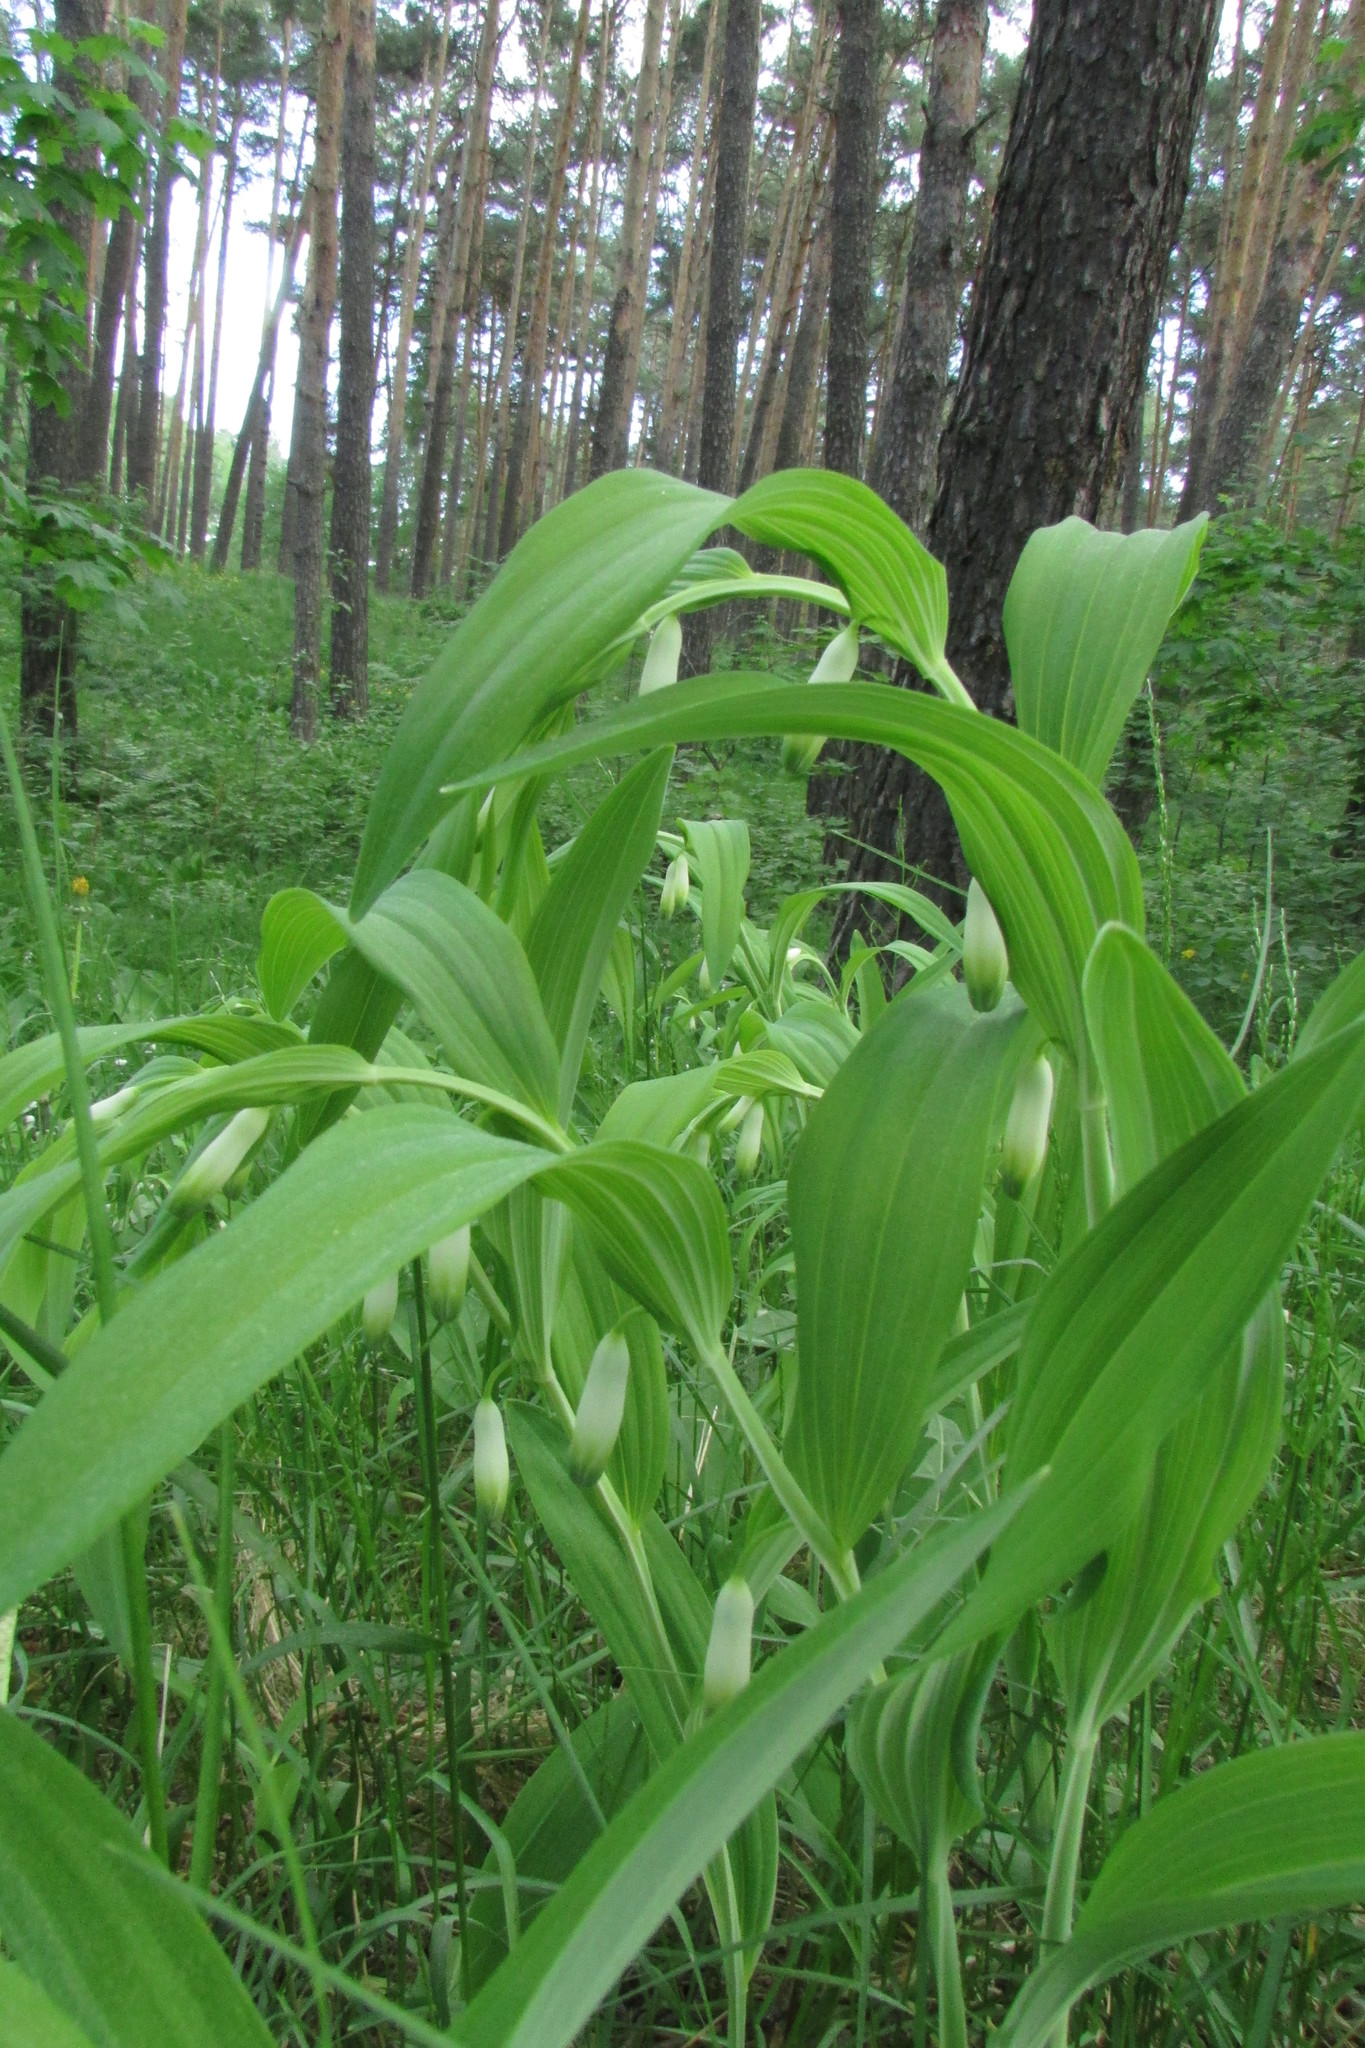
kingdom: Plantae
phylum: Tracheophyta
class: Liliopsida
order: Asparagales
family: Asparagaceae
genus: Polygonatum
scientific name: Polygonatum odoratum
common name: Angular solomon's-seal
